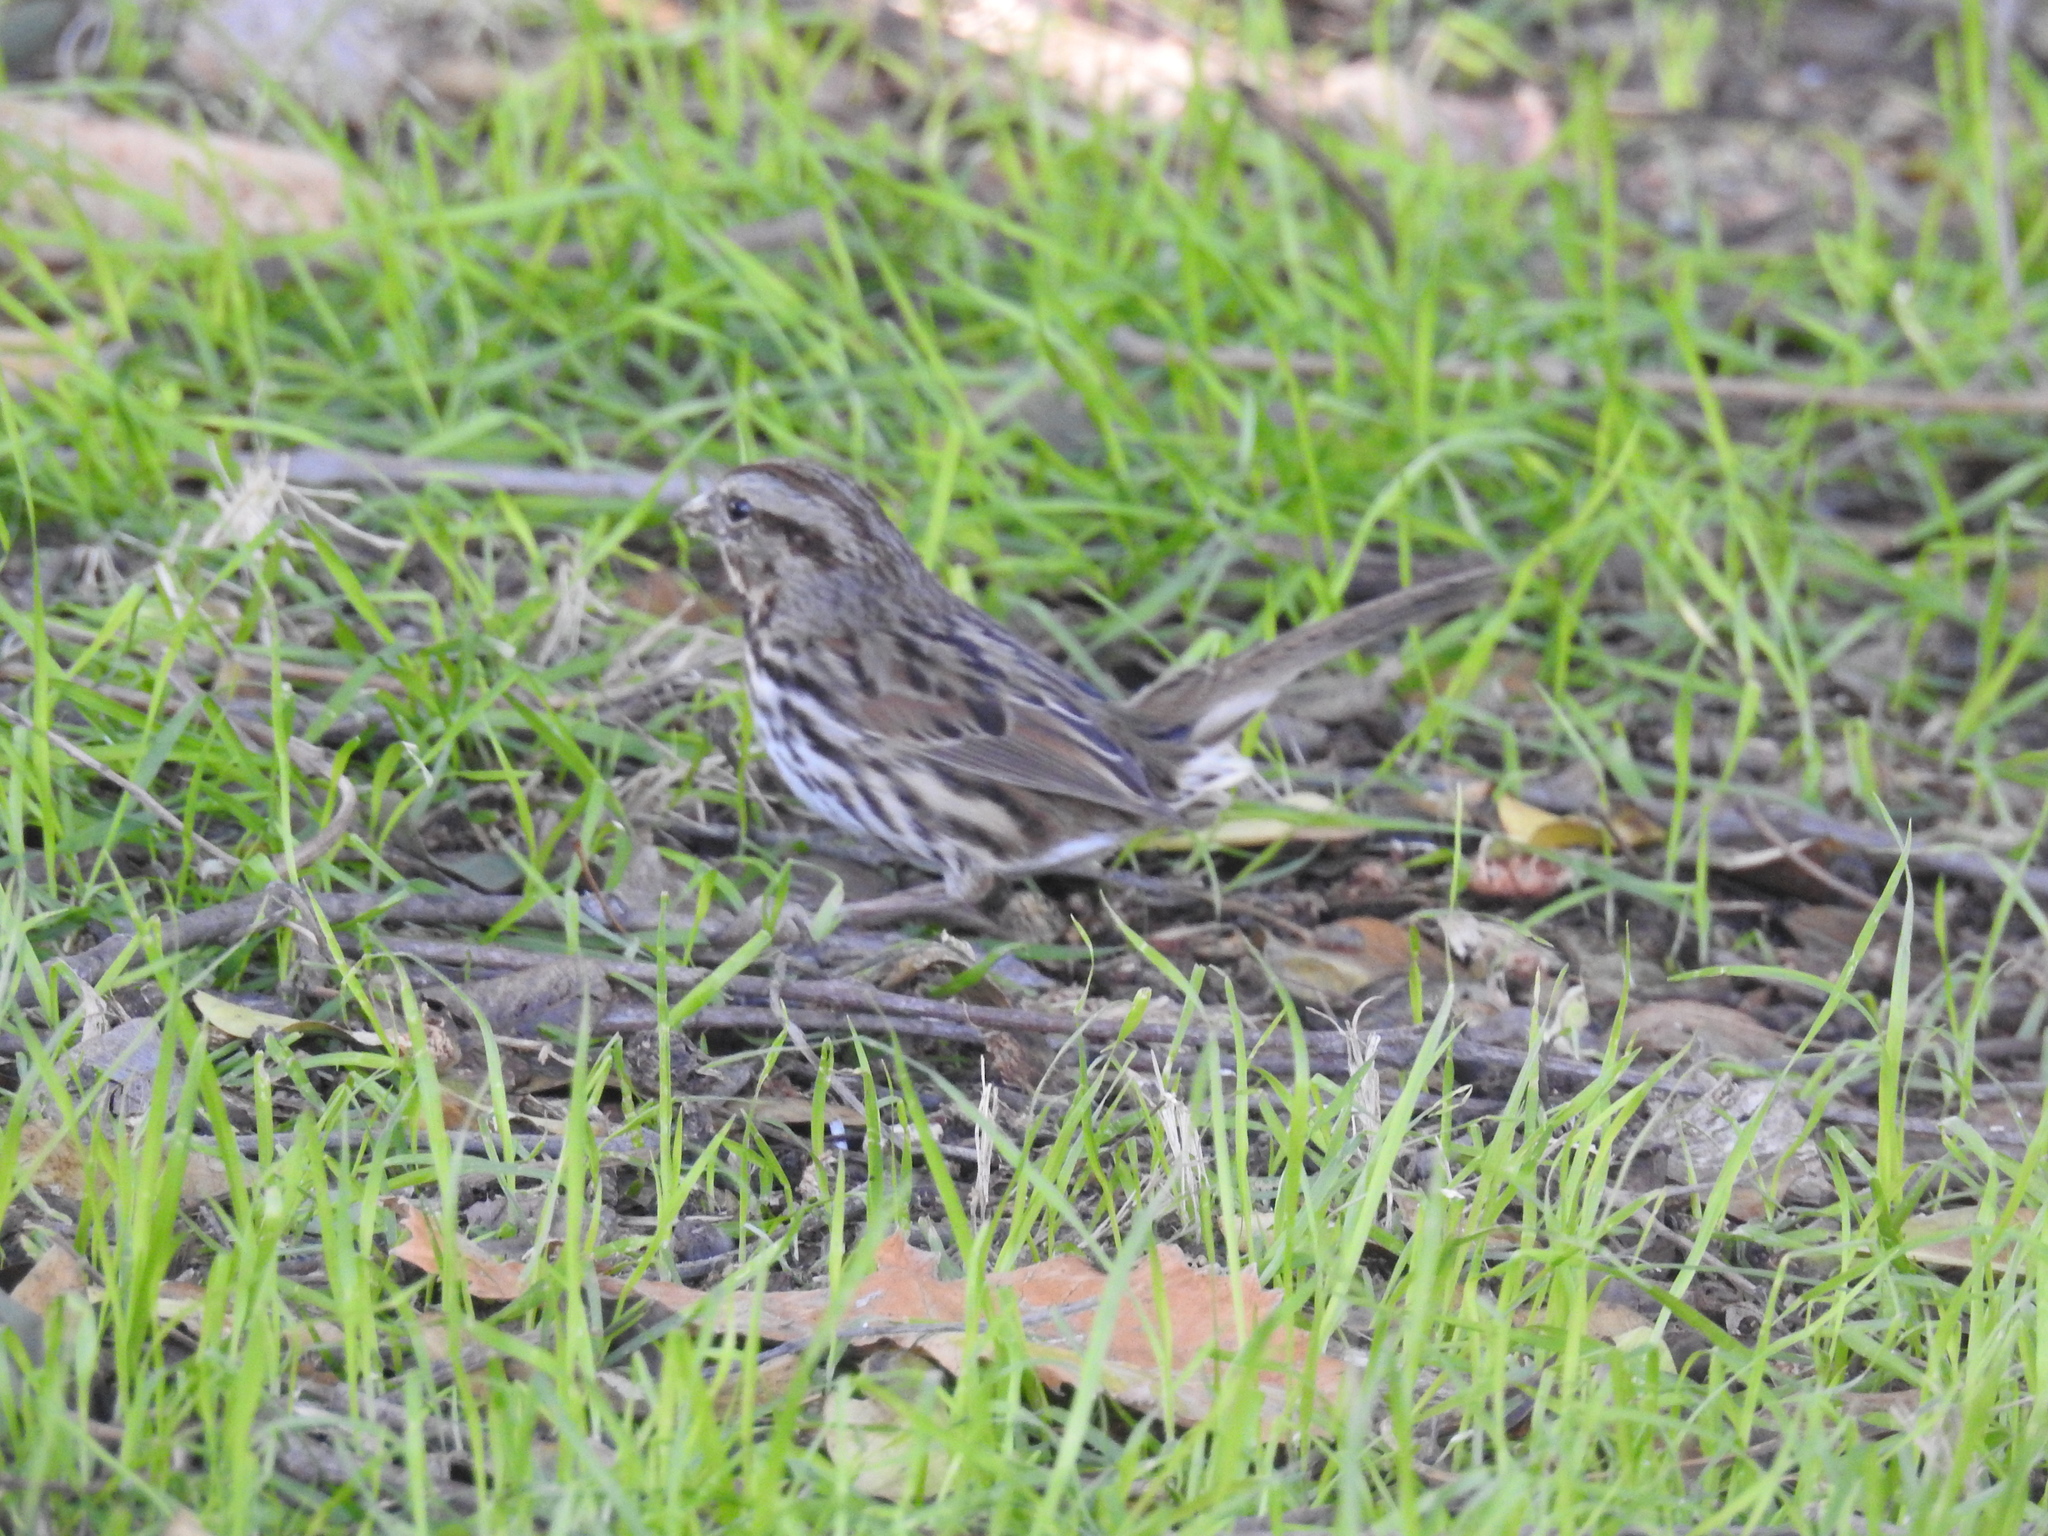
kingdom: Animalia
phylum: Chordata
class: Aves
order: Passeriformes
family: Passerellidae
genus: Melospiza
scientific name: Melospiza melodia
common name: Song sparrow
